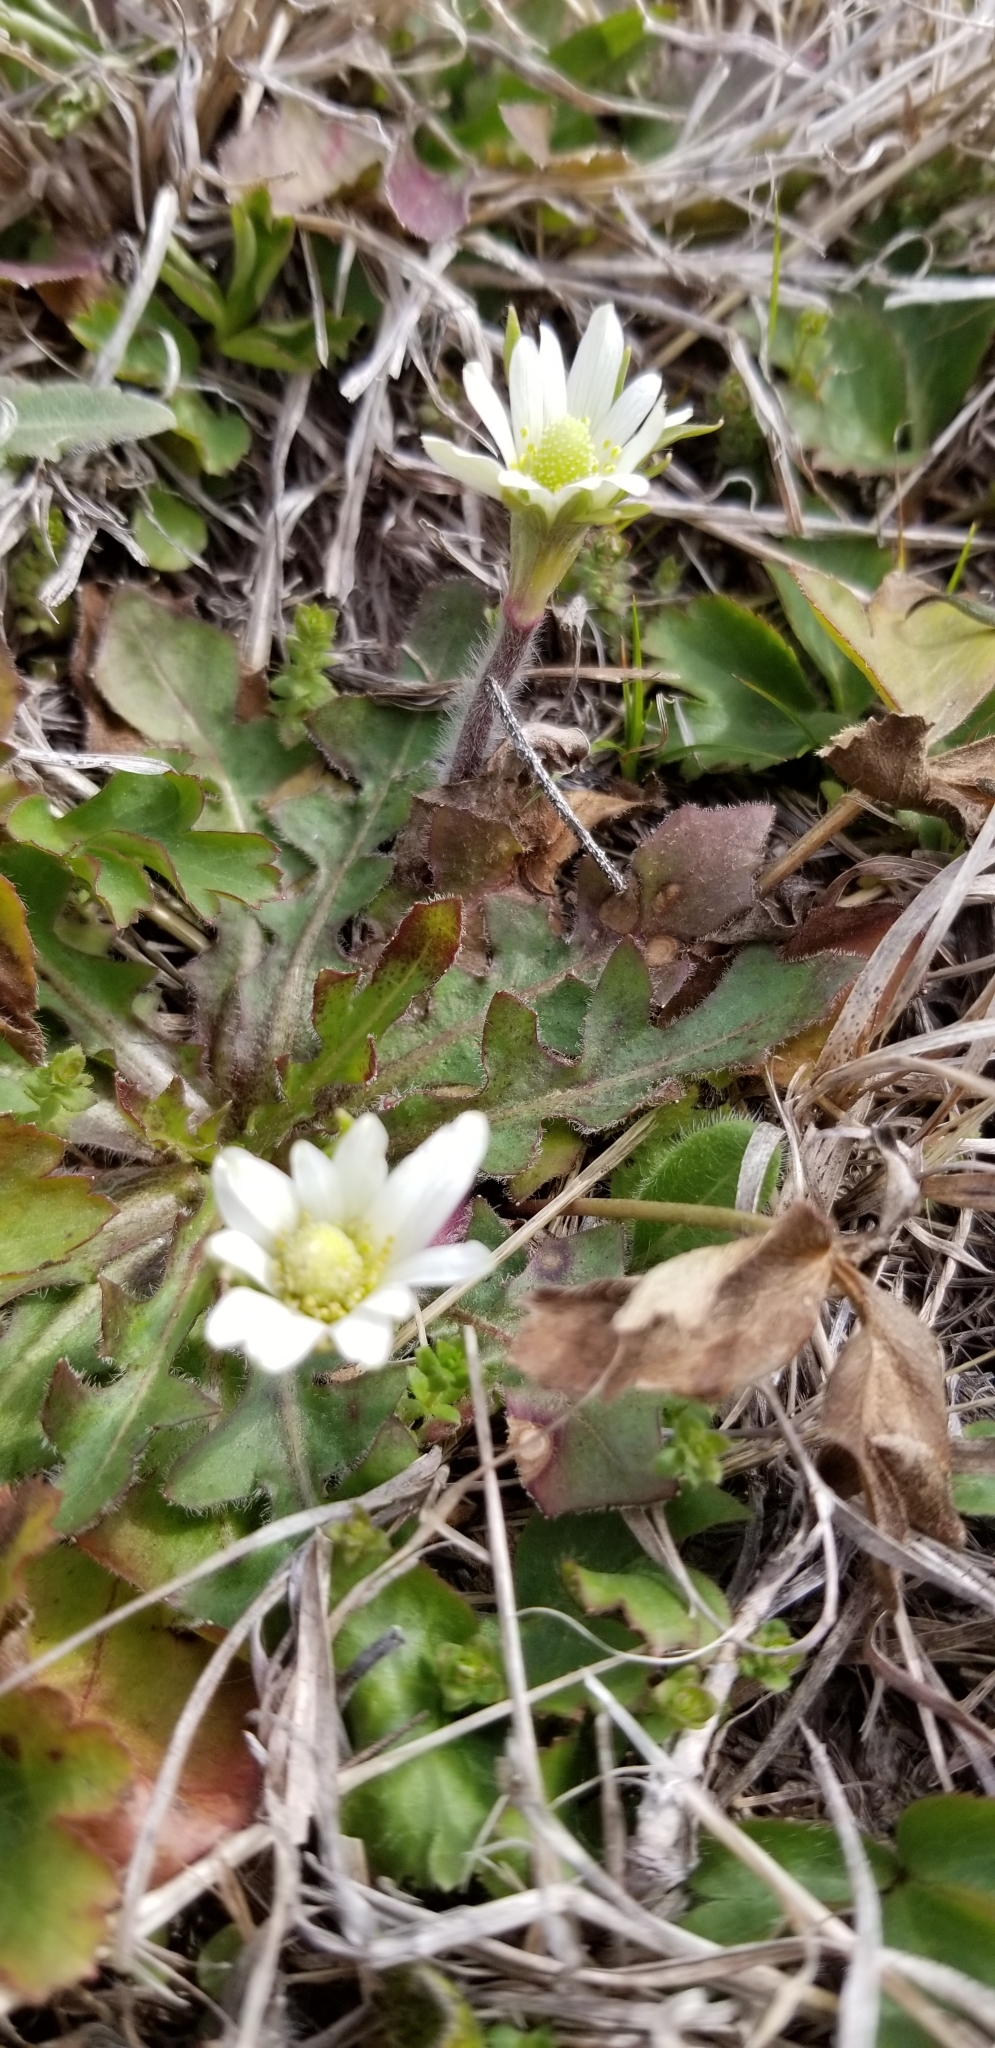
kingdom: Plantae
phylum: Tracheophyta
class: Magnoliopsida
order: Ranunculales
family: Ranunculaceae
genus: Anemone
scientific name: Anemone berlandieri
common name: Ten-petal anemone
